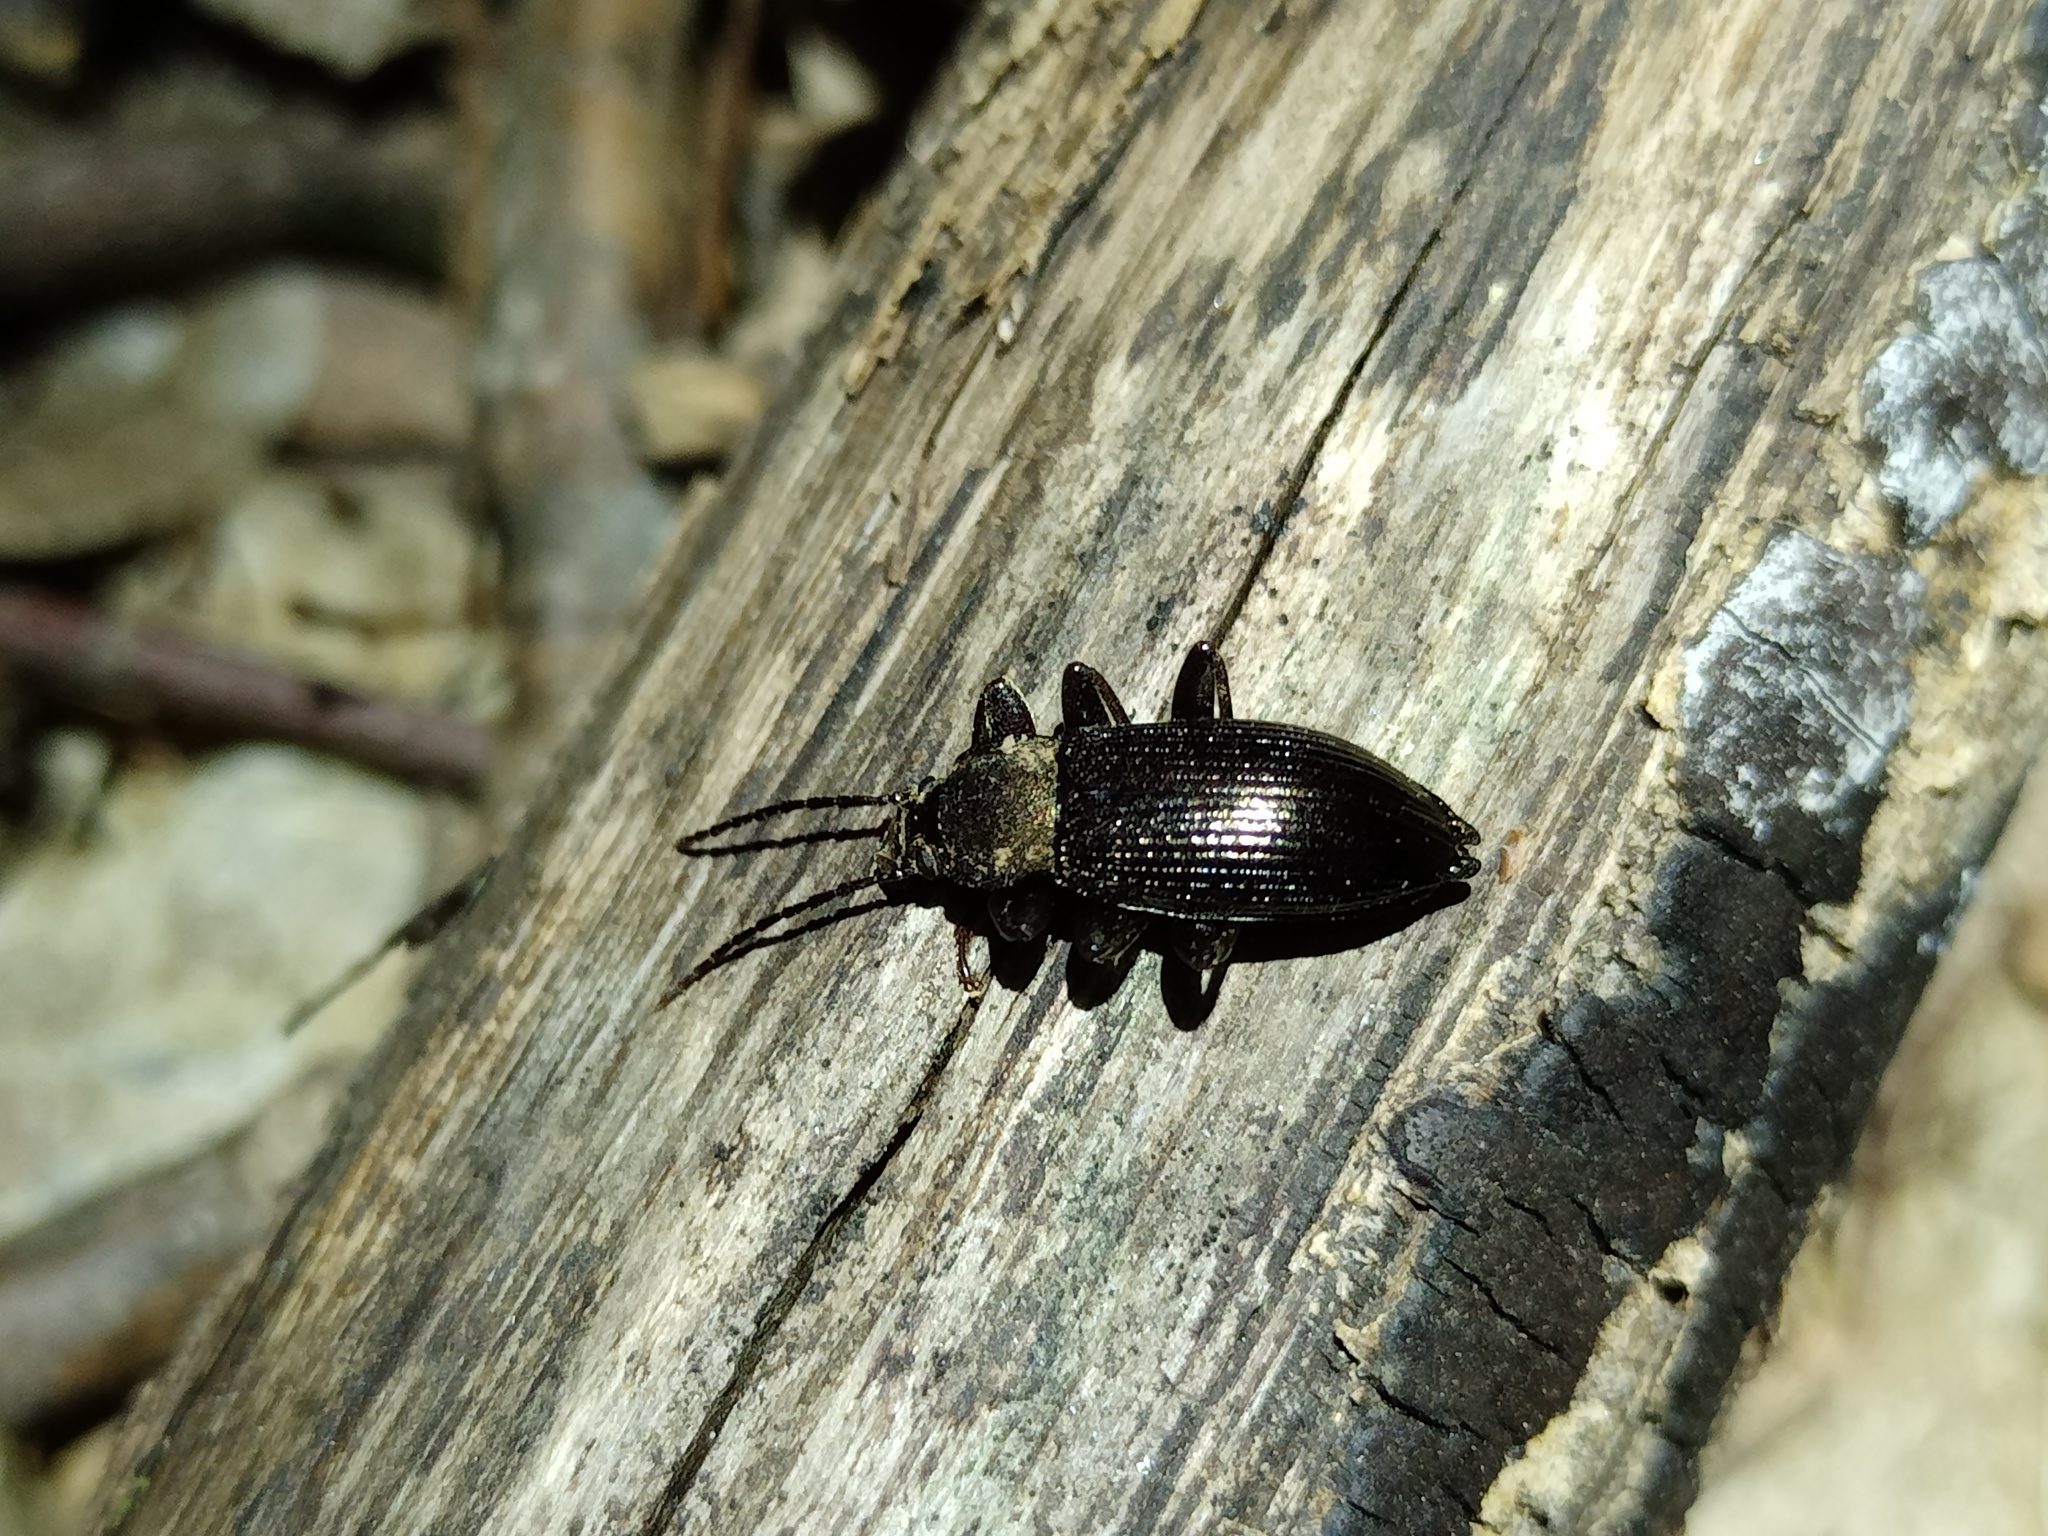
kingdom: Animalia
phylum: Arthropoda
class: Insecta
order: Coleoptera
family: Tenebrionidae
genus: Stenomax
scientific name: Stenomax aeneus
